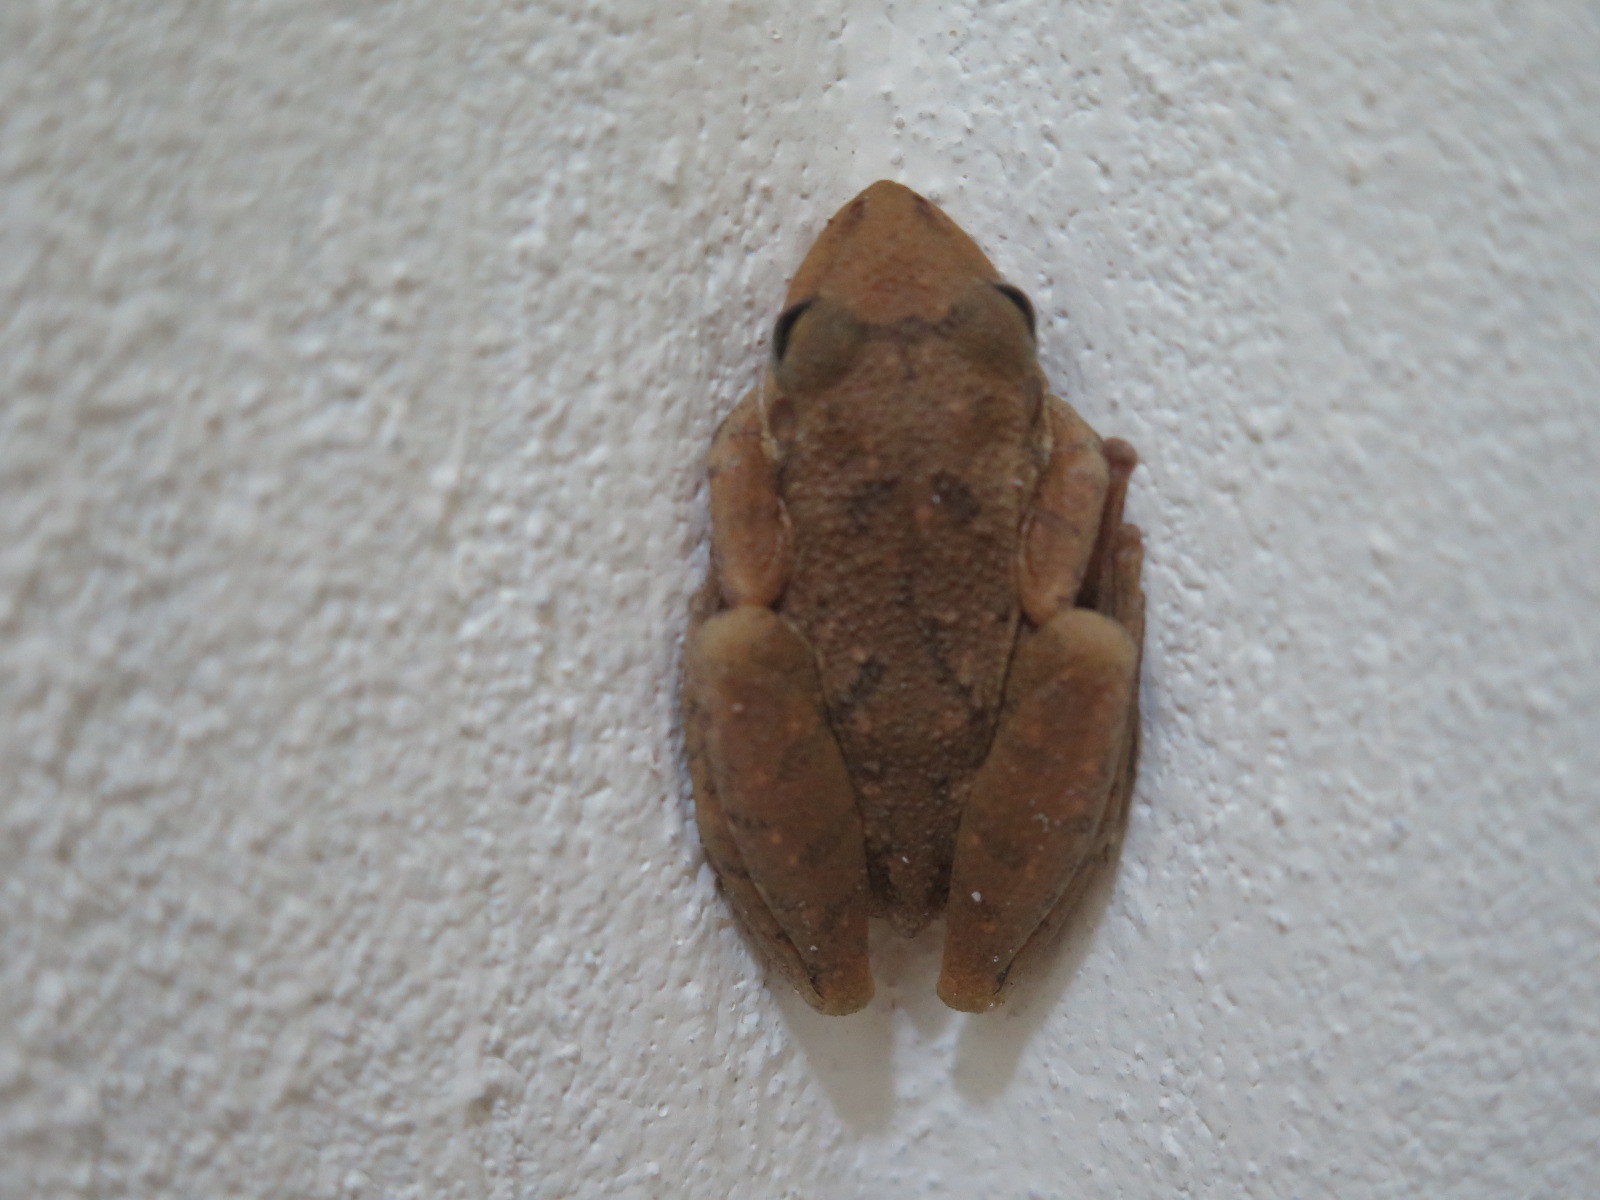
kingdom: Animalia
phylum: Chordata
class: Amphibia
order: Anura
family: Hylidae
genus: Scinax
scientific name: Scinax fuscovarius
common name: Fuscous-blotched treefrog
